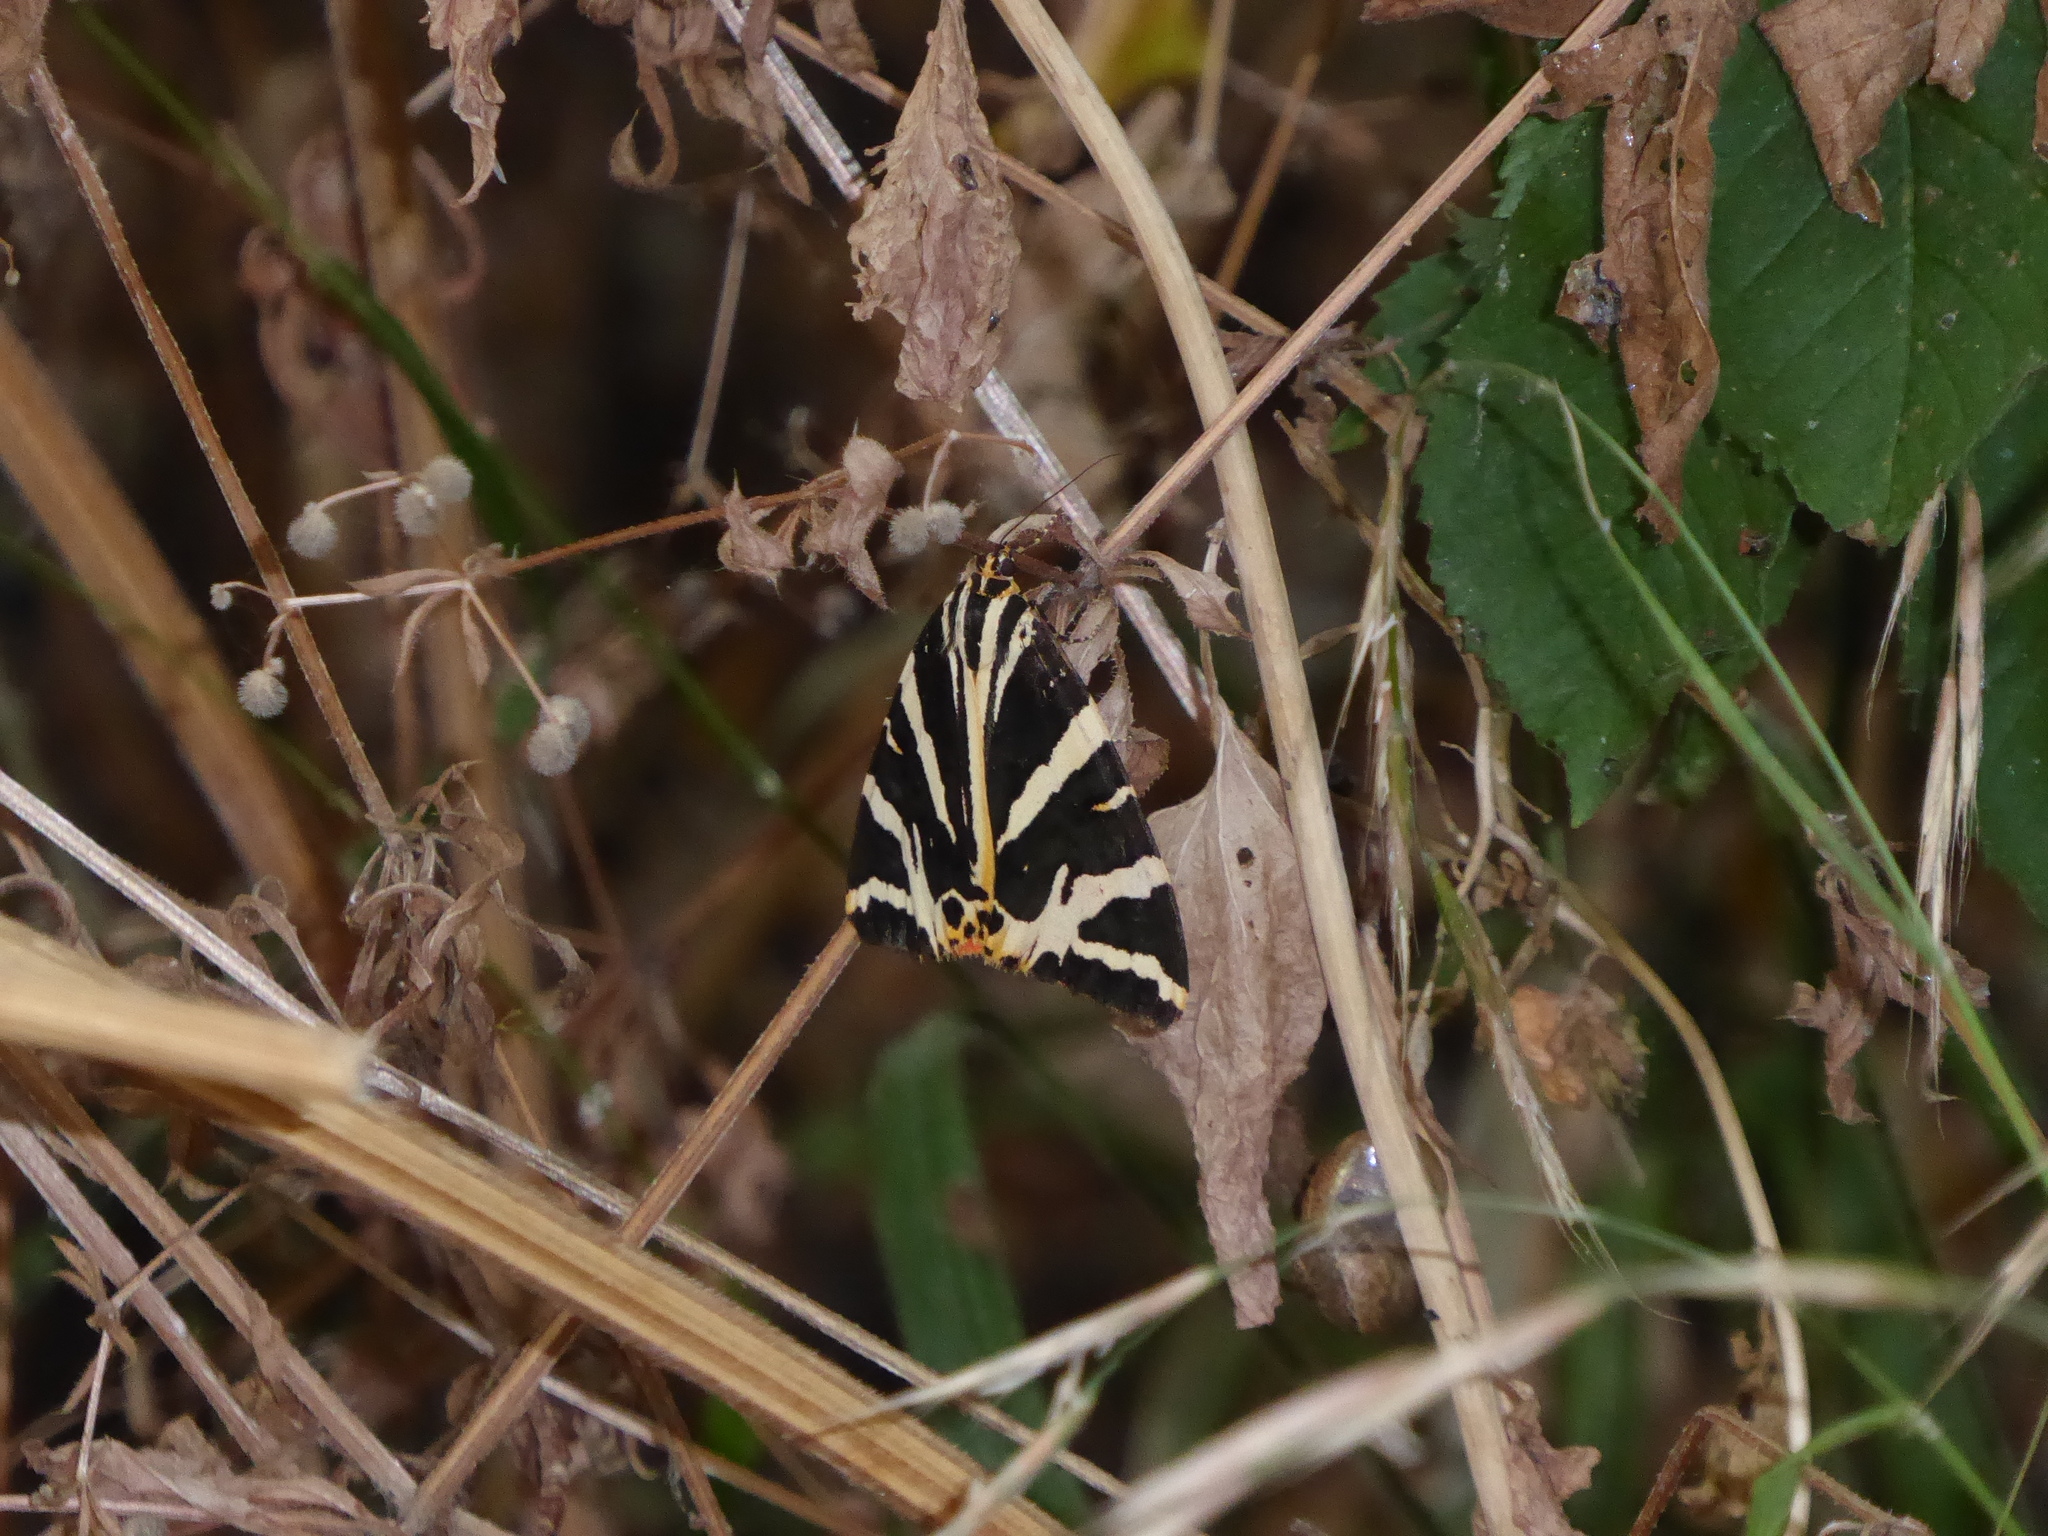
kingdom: Animalia
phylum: Arthropoda
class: Insecta
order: Lepidoptera
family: Erebidae
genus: Euplagia
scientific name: Euplagia quadripunctaria
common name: Jersey tiger
